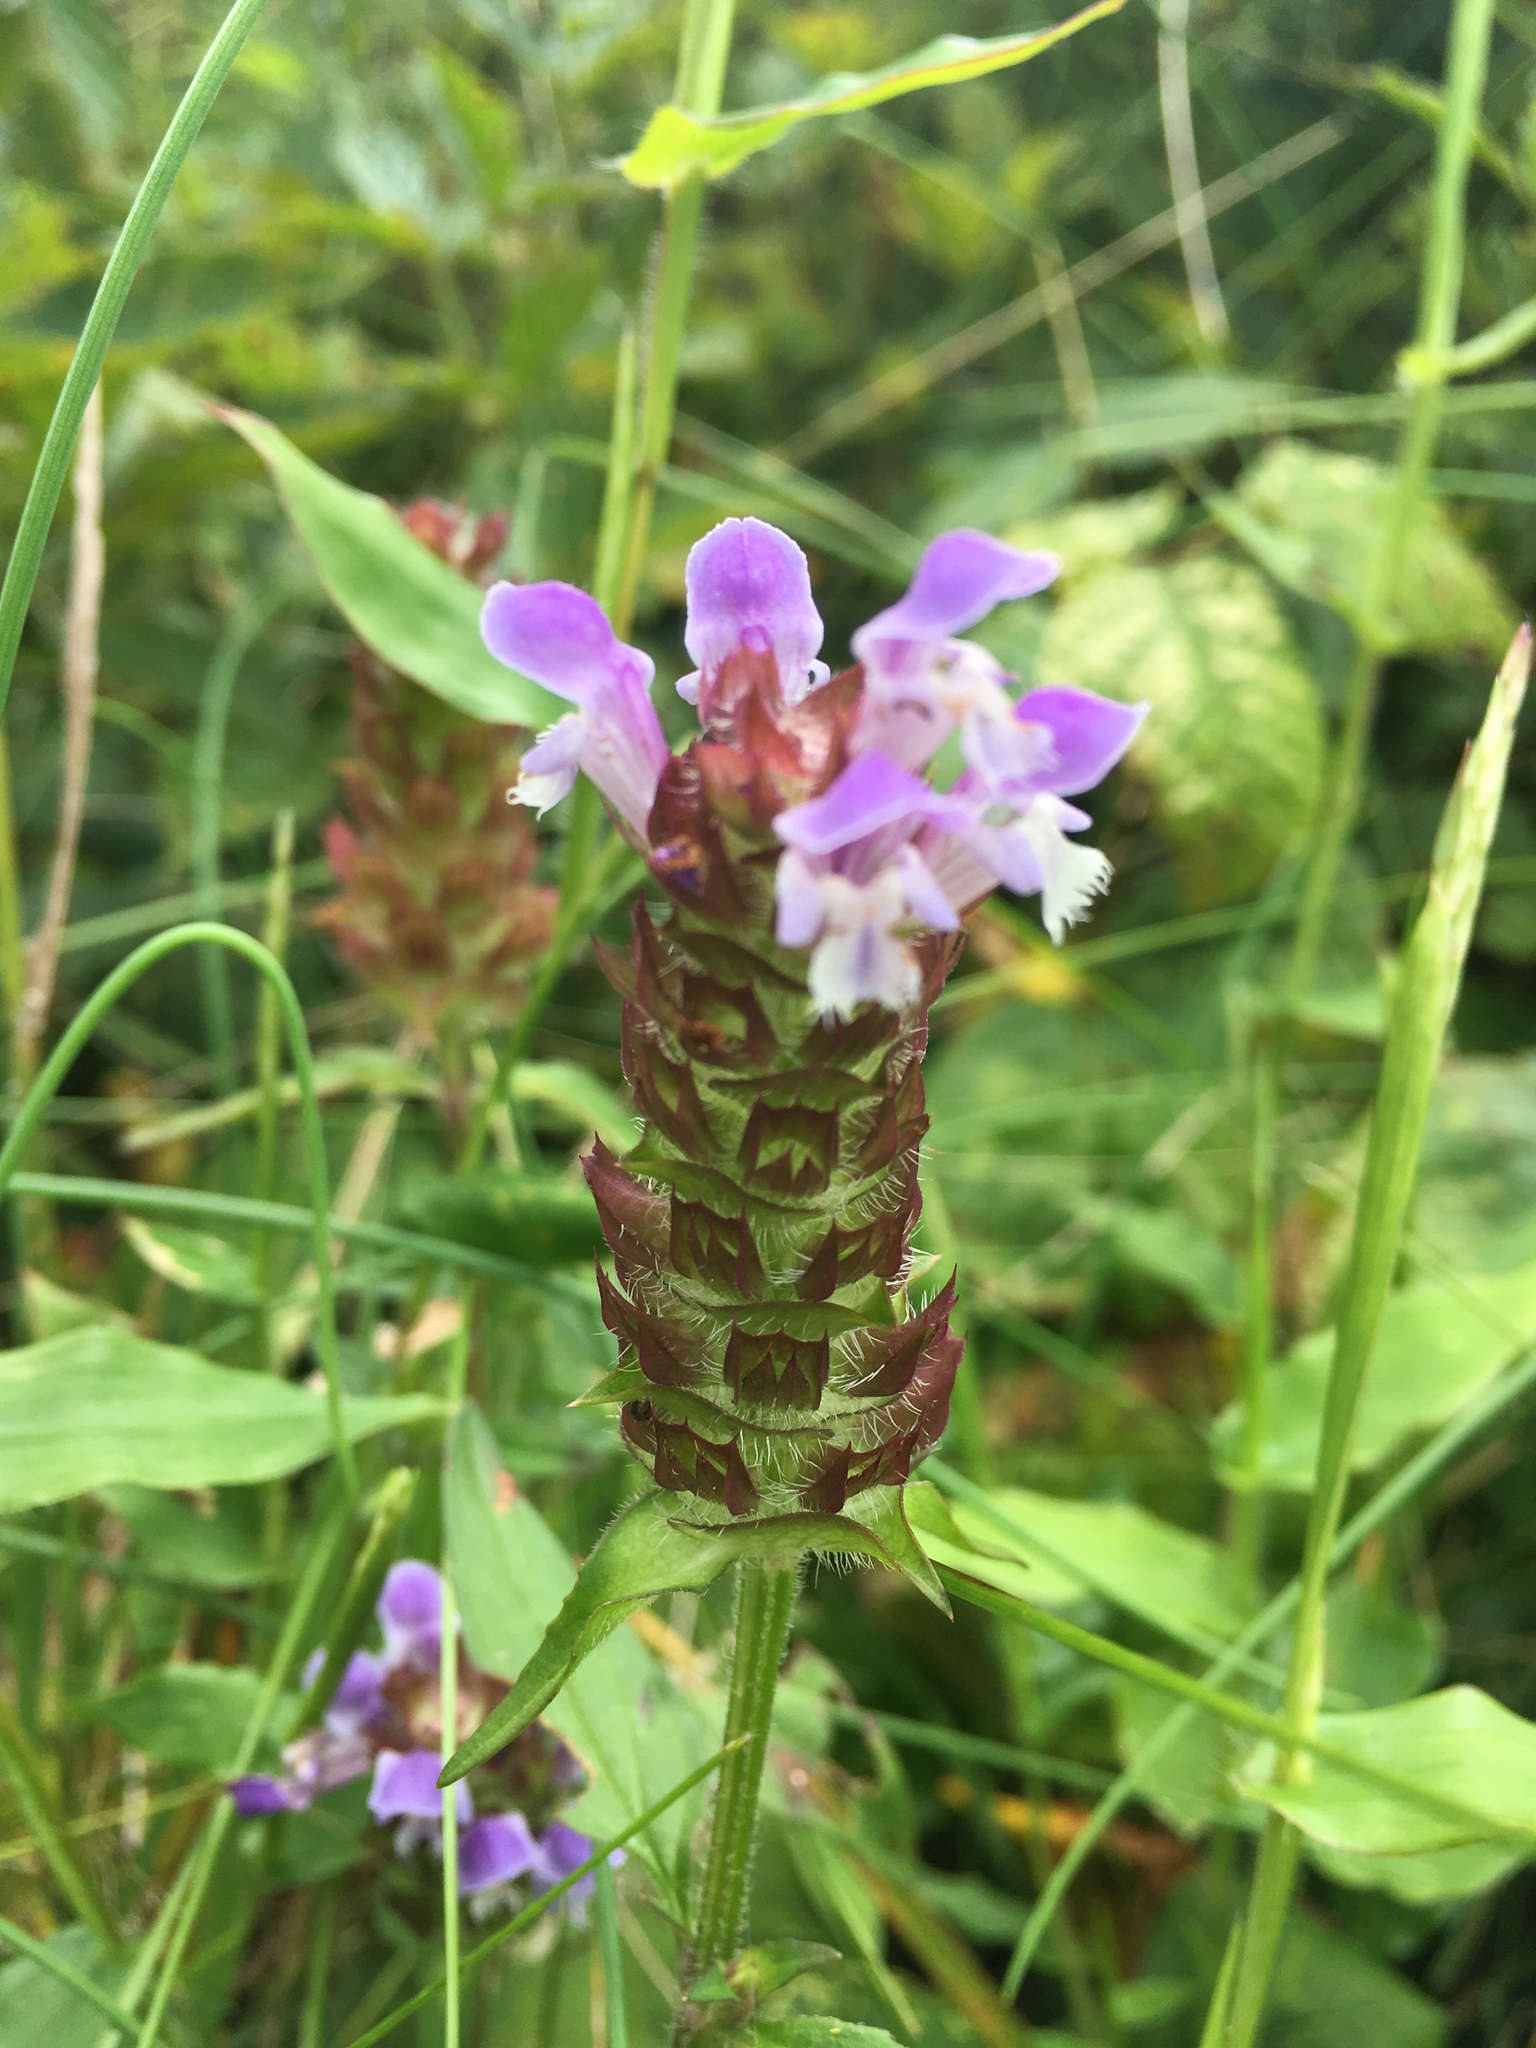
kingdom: Plantae
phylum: Tracheophyta
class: Magnoliopsida
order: Lamiales
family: Lamiaceae
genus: Prunella
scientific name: Prunella vulgaris
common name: Heal-all
